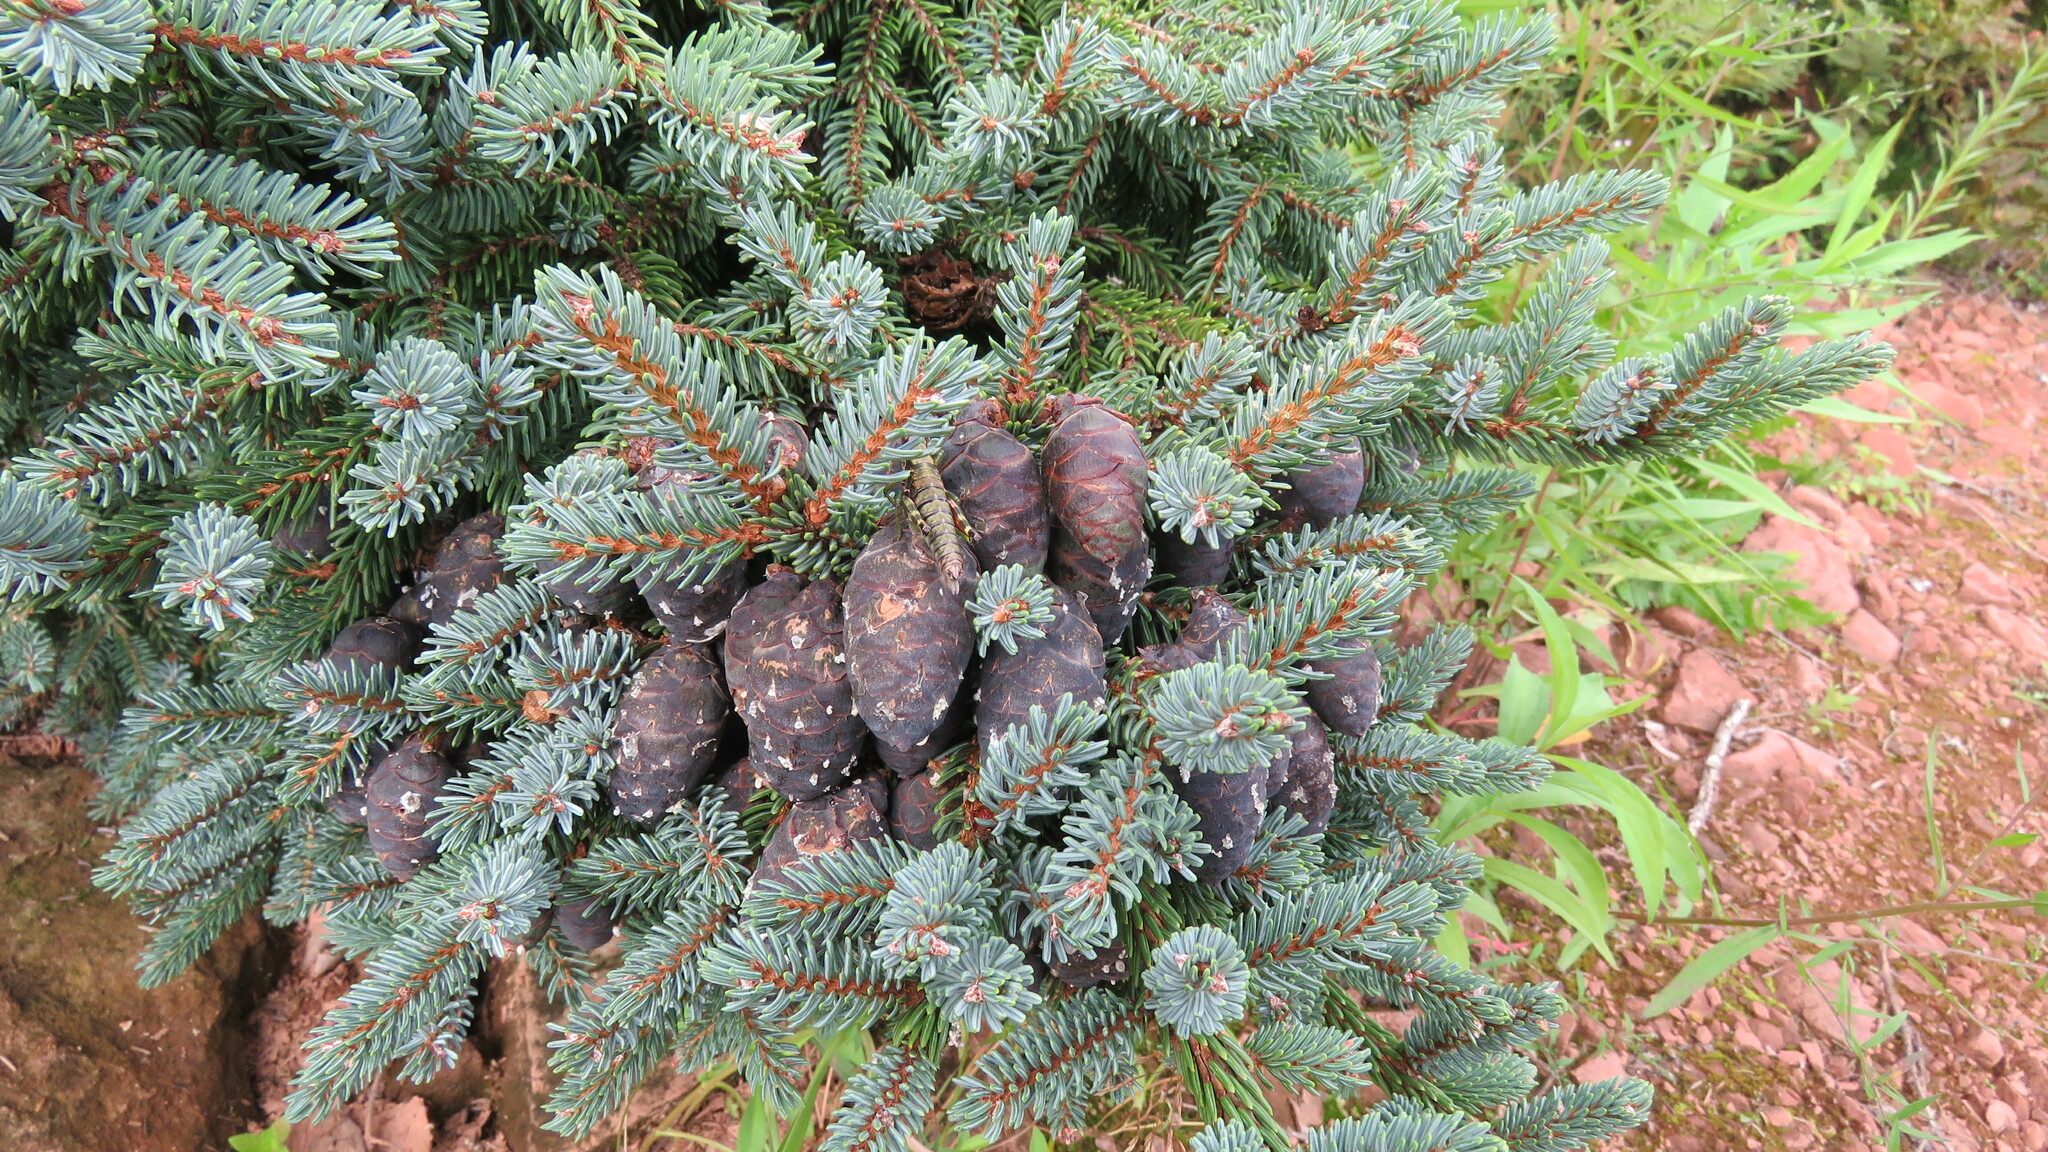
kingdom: Plantae
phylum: Tracheophyta
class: Pinopsida
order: Pinales
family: Pinaceae
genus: Picea
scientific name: Picea mariana
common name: Black spruce
